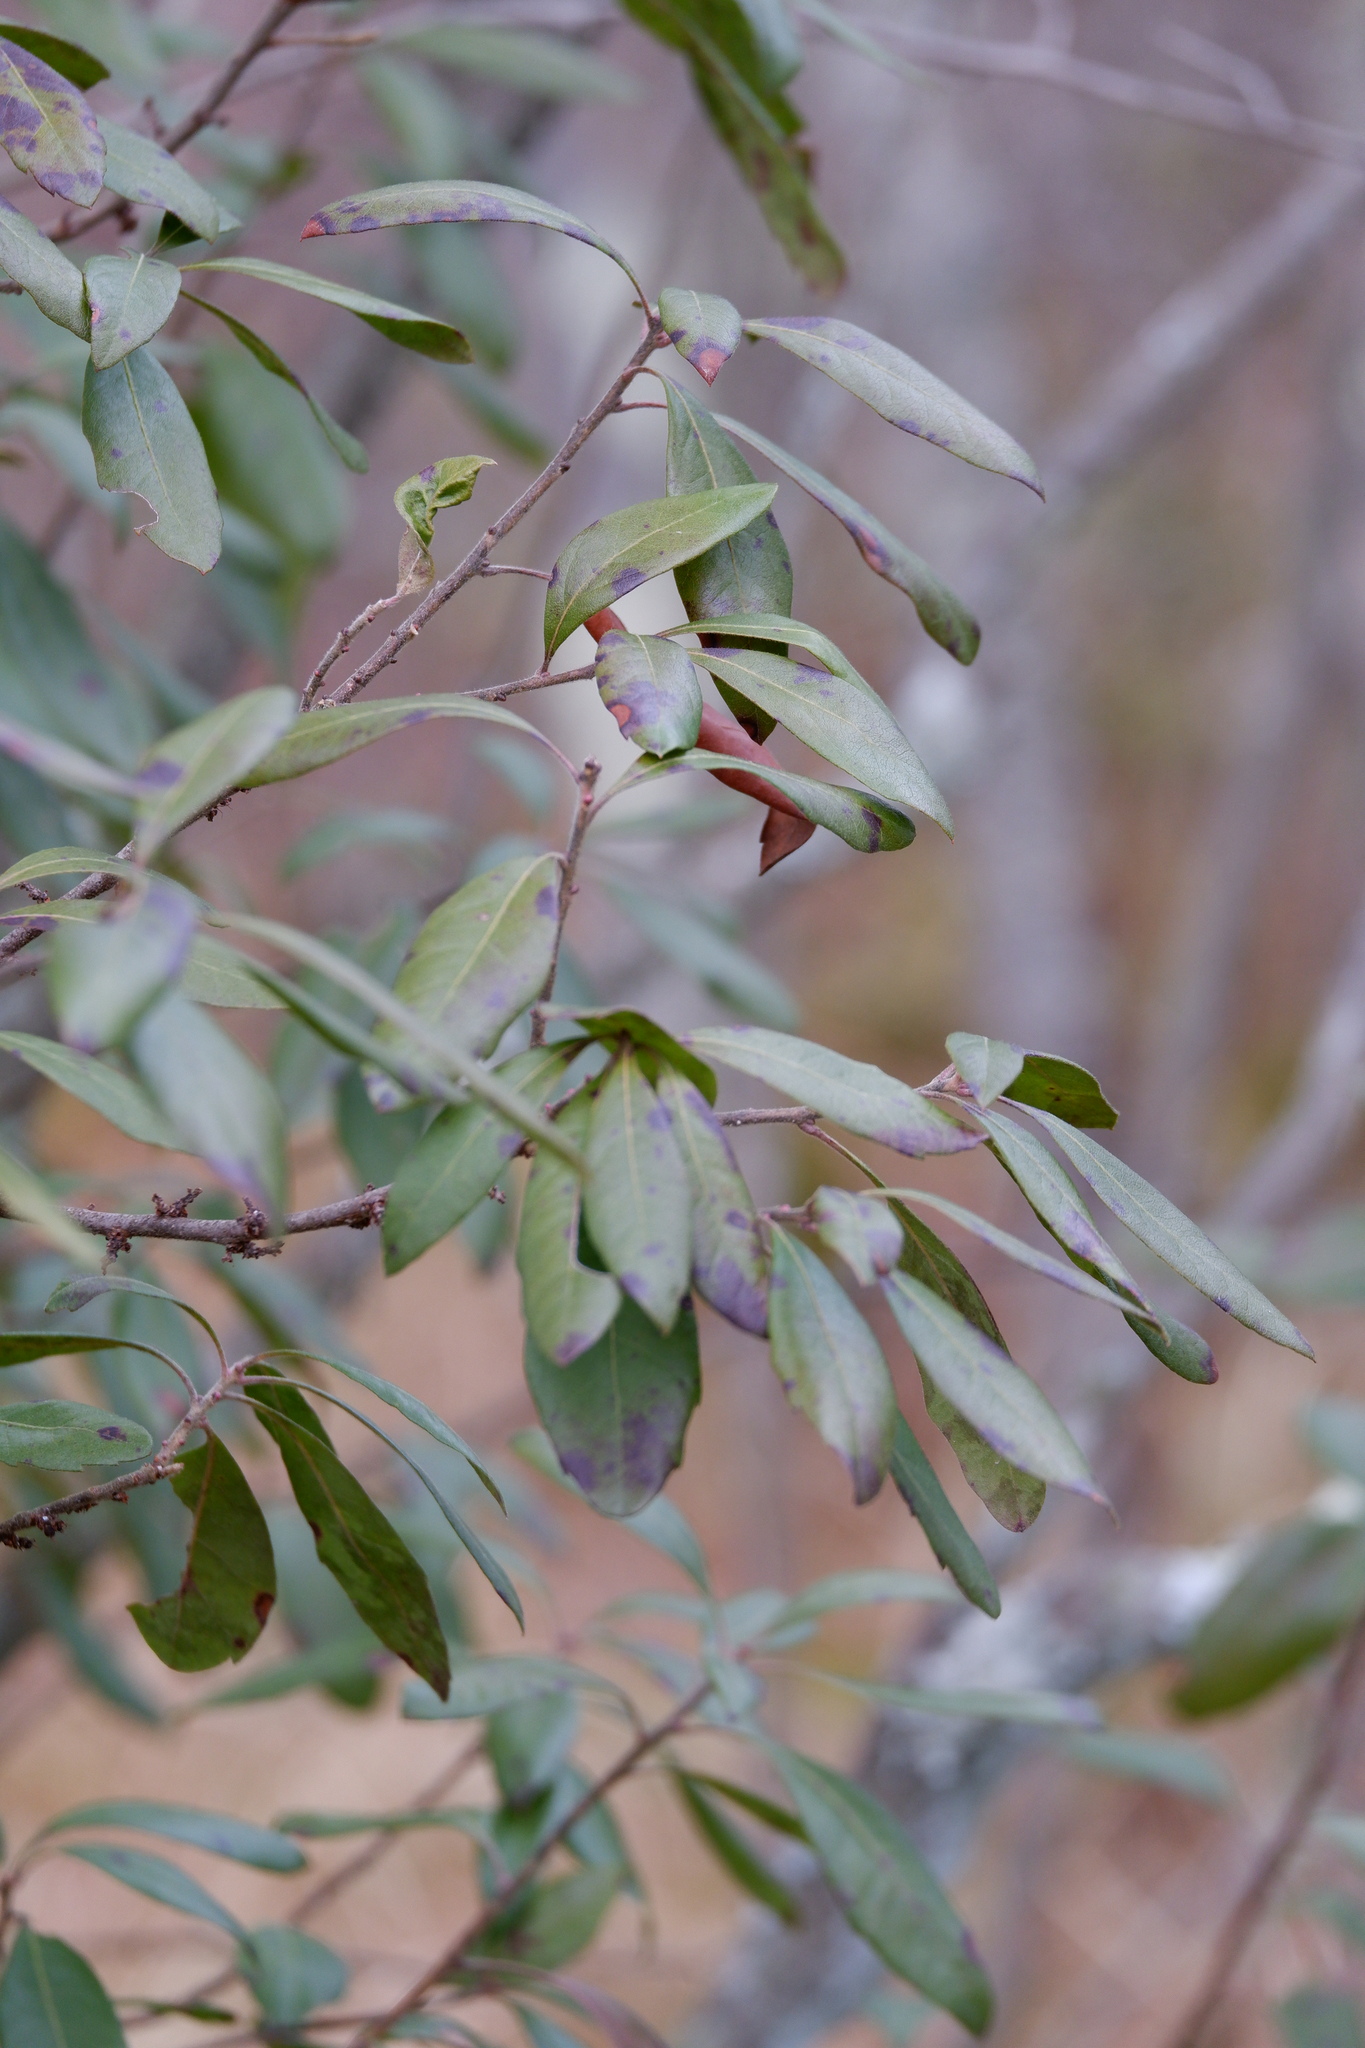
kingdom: Plantae
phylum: Tracheophyta
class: Magnoliopsida
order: Fagales
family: Myricaceae
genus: Morella
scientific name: Morella caroliniensis
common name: Evergreen bayberry
